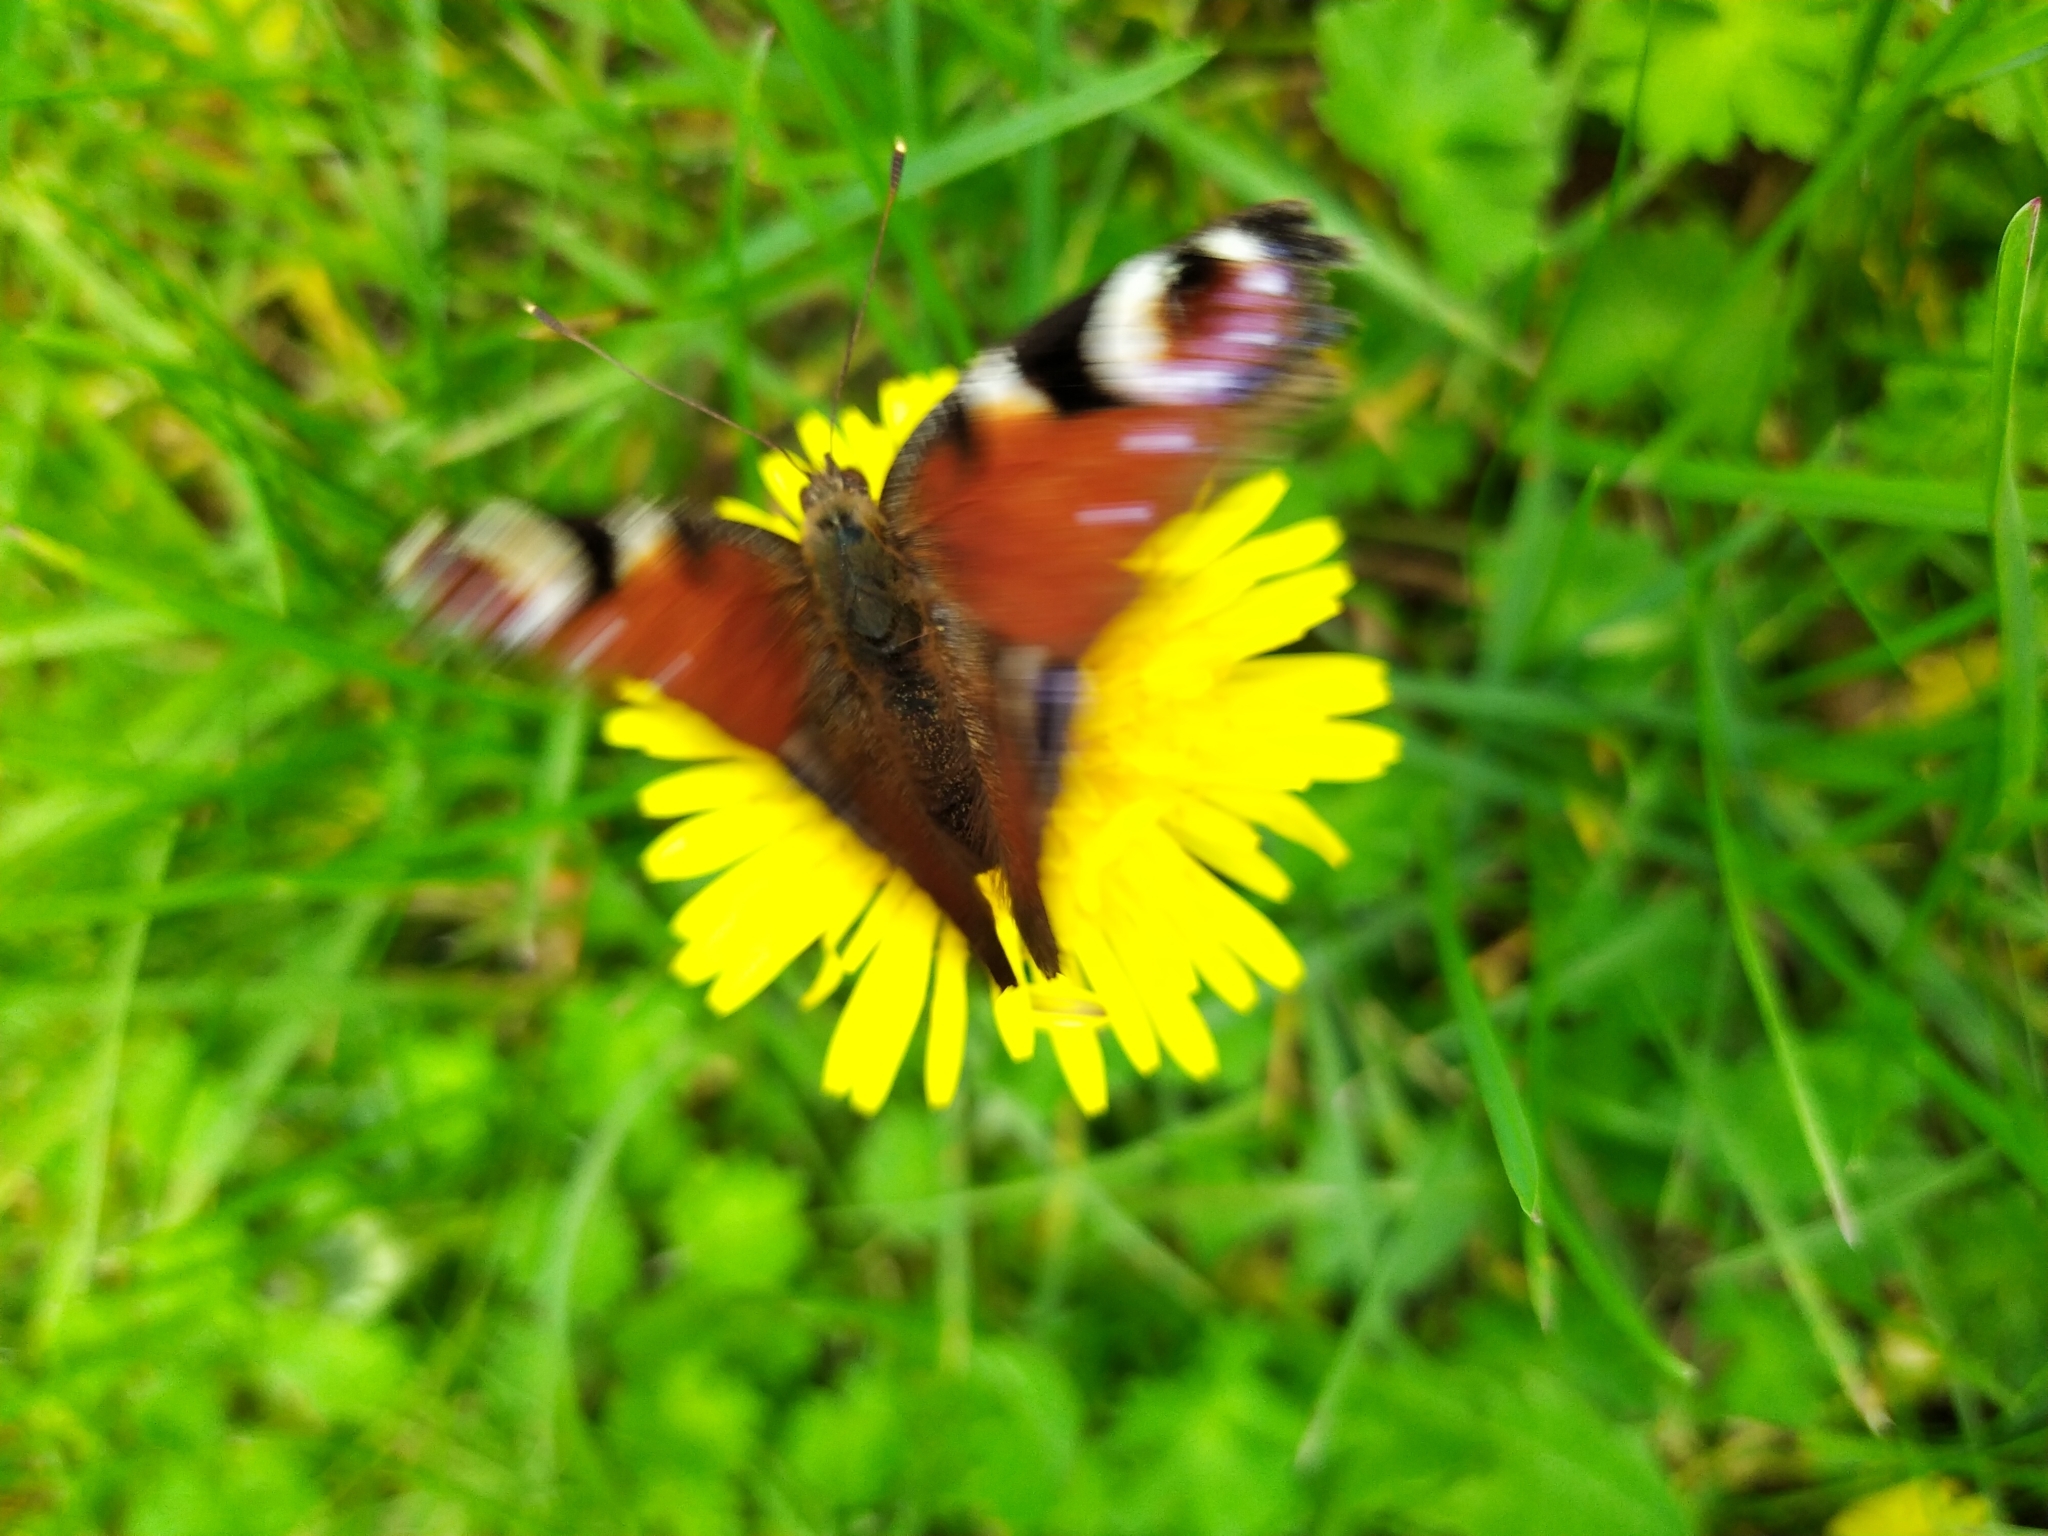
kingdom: Animalia
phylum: Arthropoda
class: Insecta
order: Lepidoptera
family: Nymphalidae
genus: Aglais
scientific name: Aglais io
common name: Peacock
